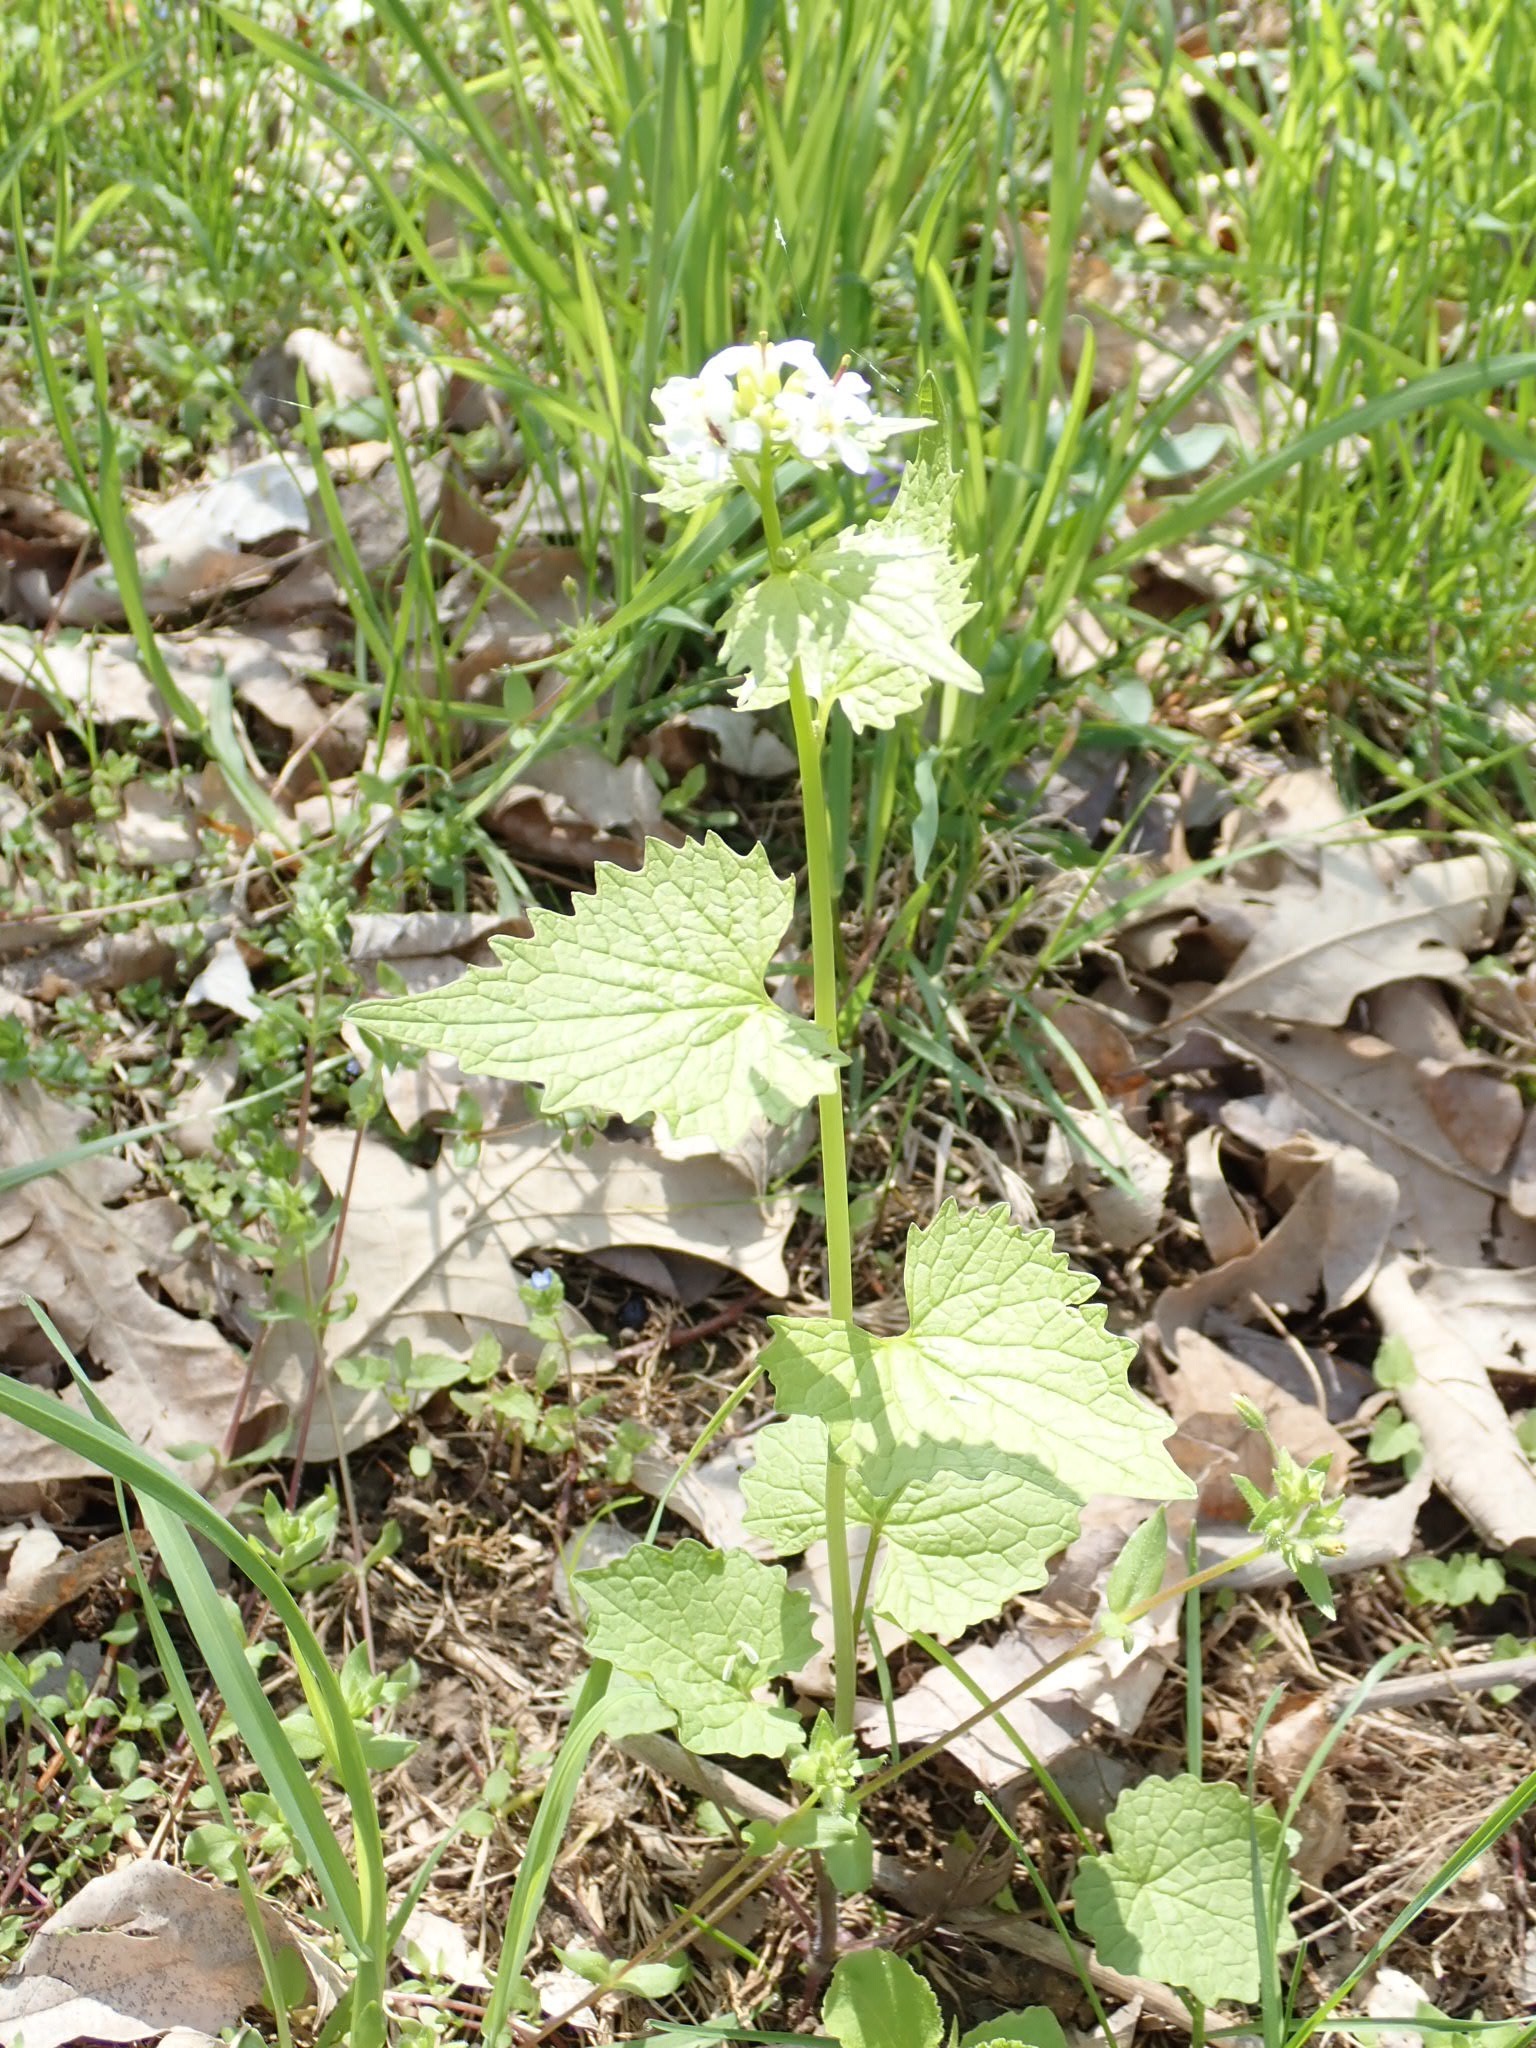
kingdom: Plantae
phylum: Tracheophyta
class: Magnoliopsida
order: Brassicales
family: Brassicaceae
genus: Alliaria
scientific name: Alliaria petiolata
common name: Garlic mustard
